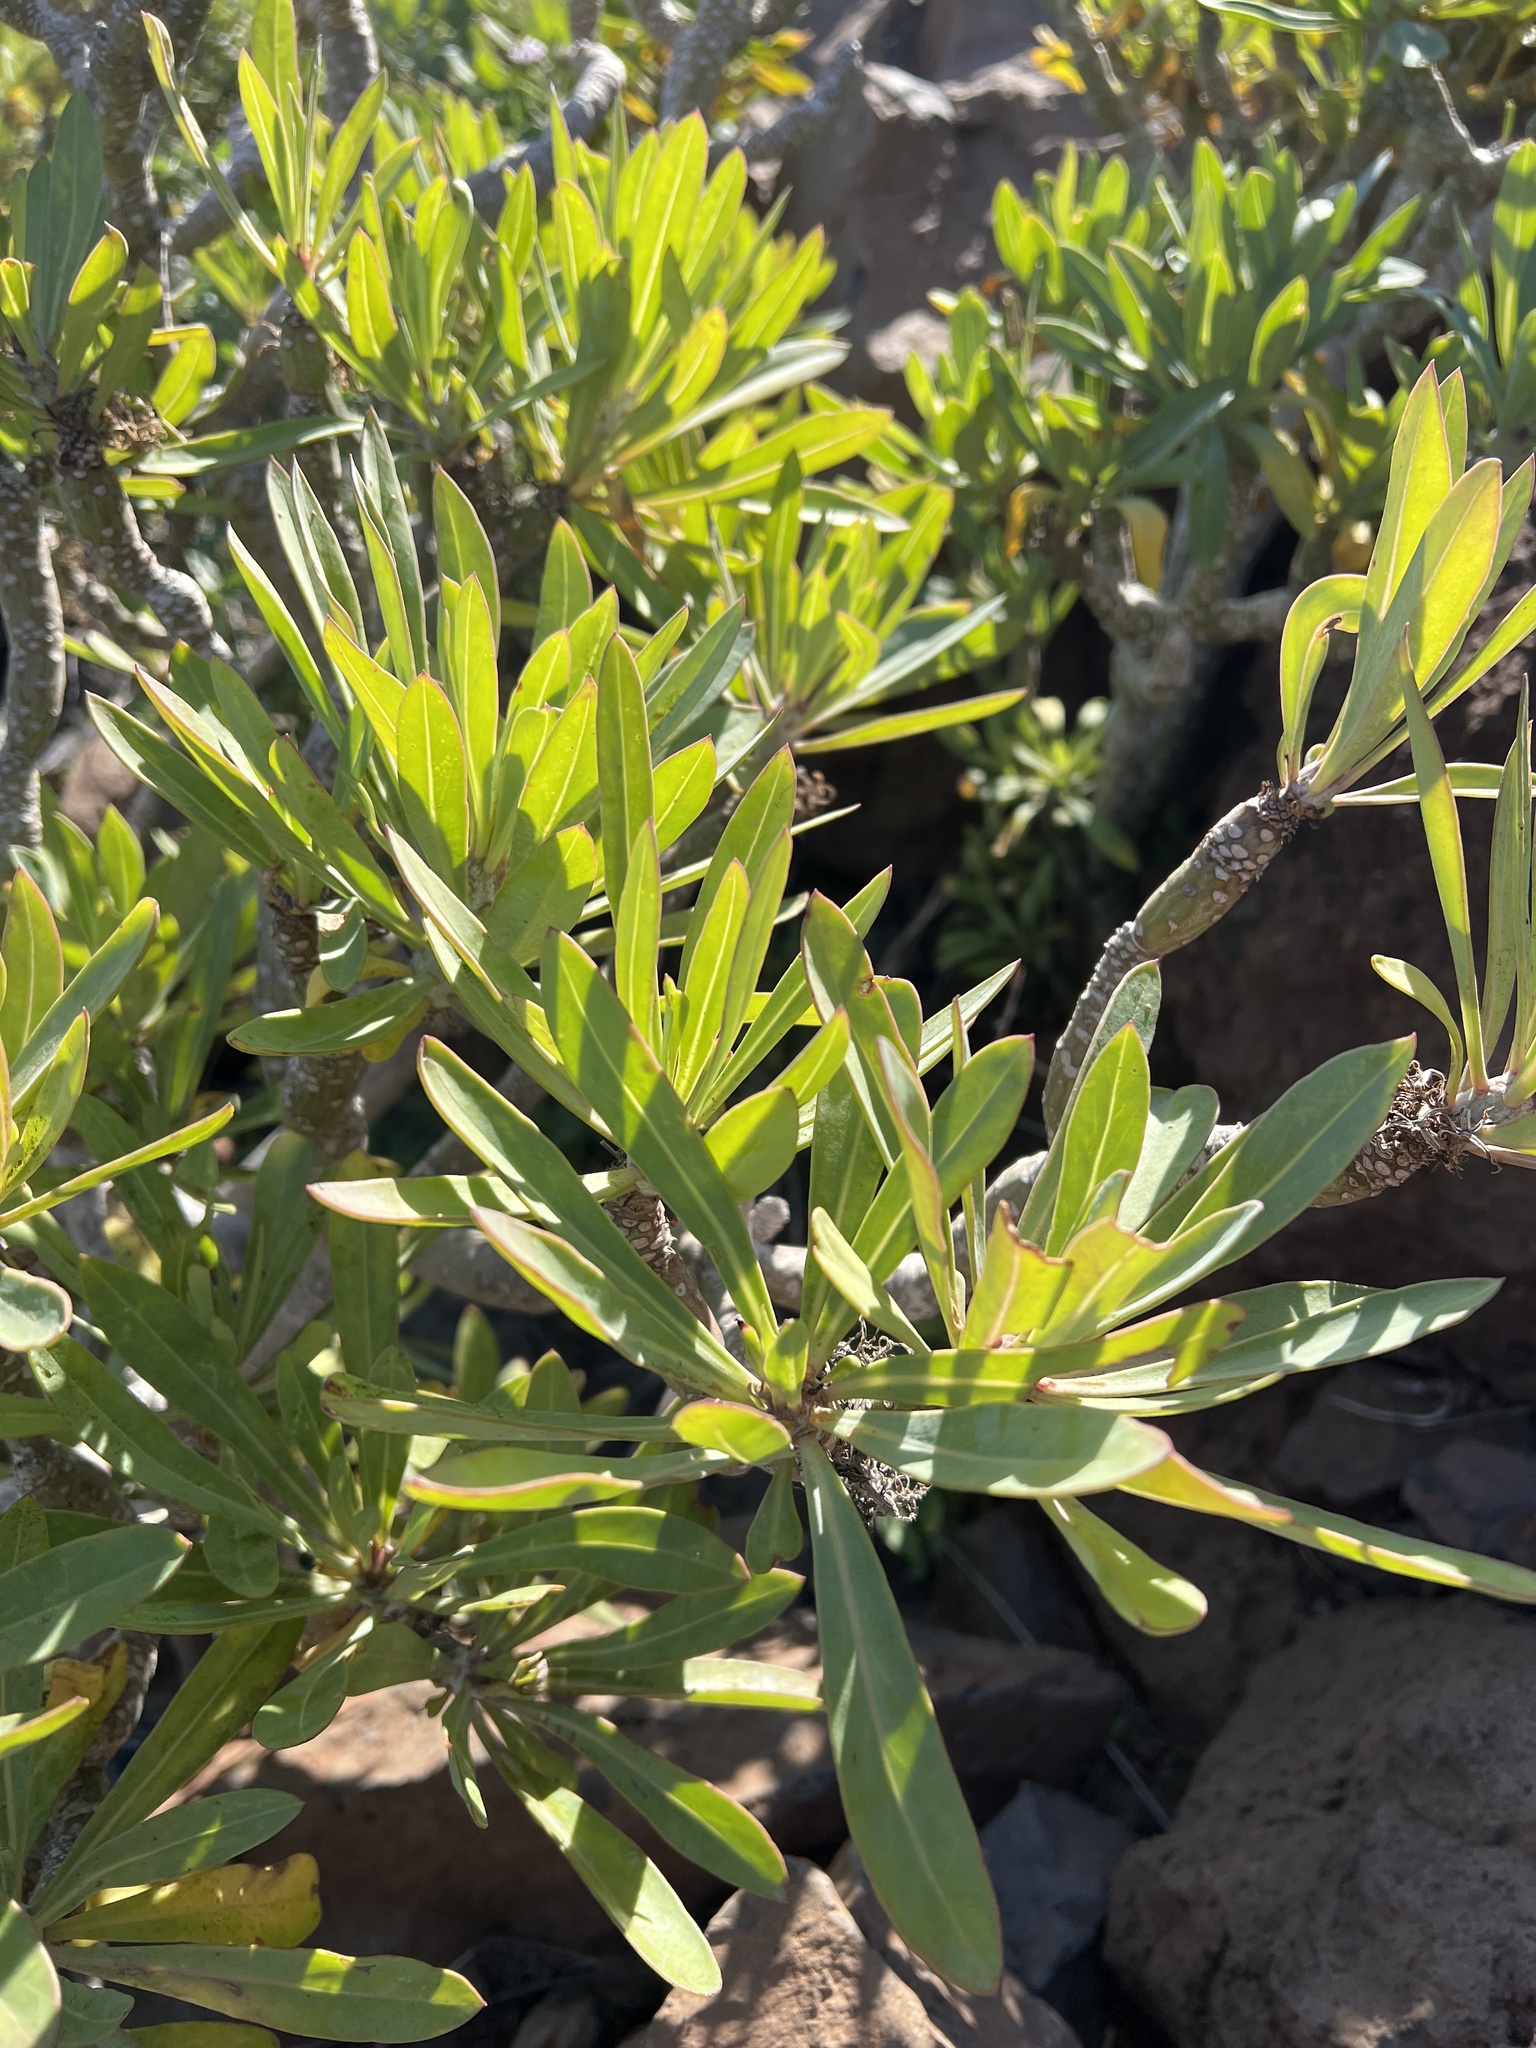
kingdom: Plantae
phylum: Tracheophyta
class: Magnoliopsida
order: Asterales
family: Asteraceae
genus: Kleinia
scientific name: Kleinia neriifolia
